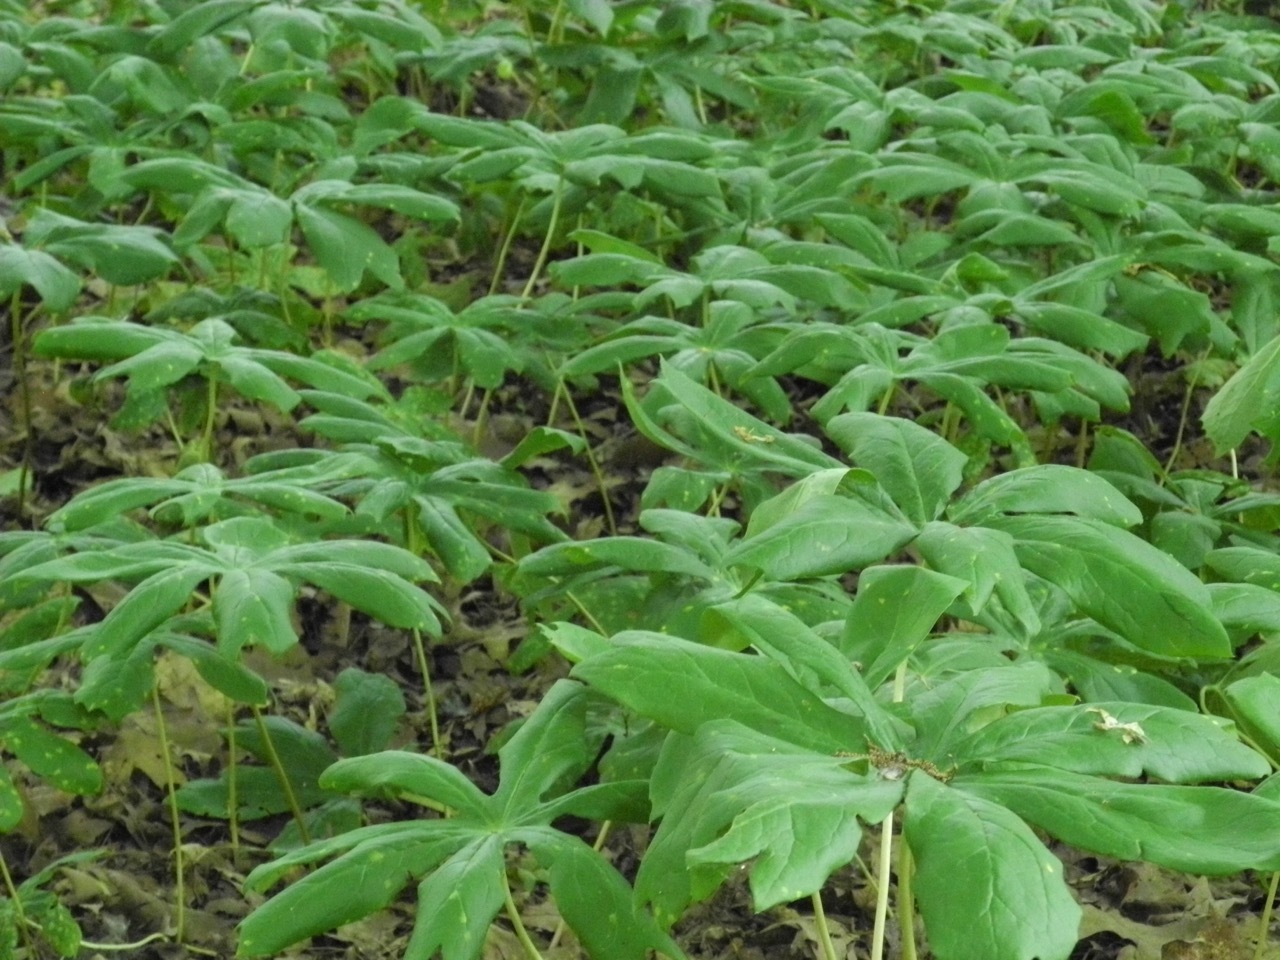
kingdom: Plantae
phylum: Tracheophyta
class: Magnoliopsida
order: Ranunculales
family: Berberidaceae
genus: Podophyllum
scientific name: Podophyllum peltatum
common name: Wild mandrake
